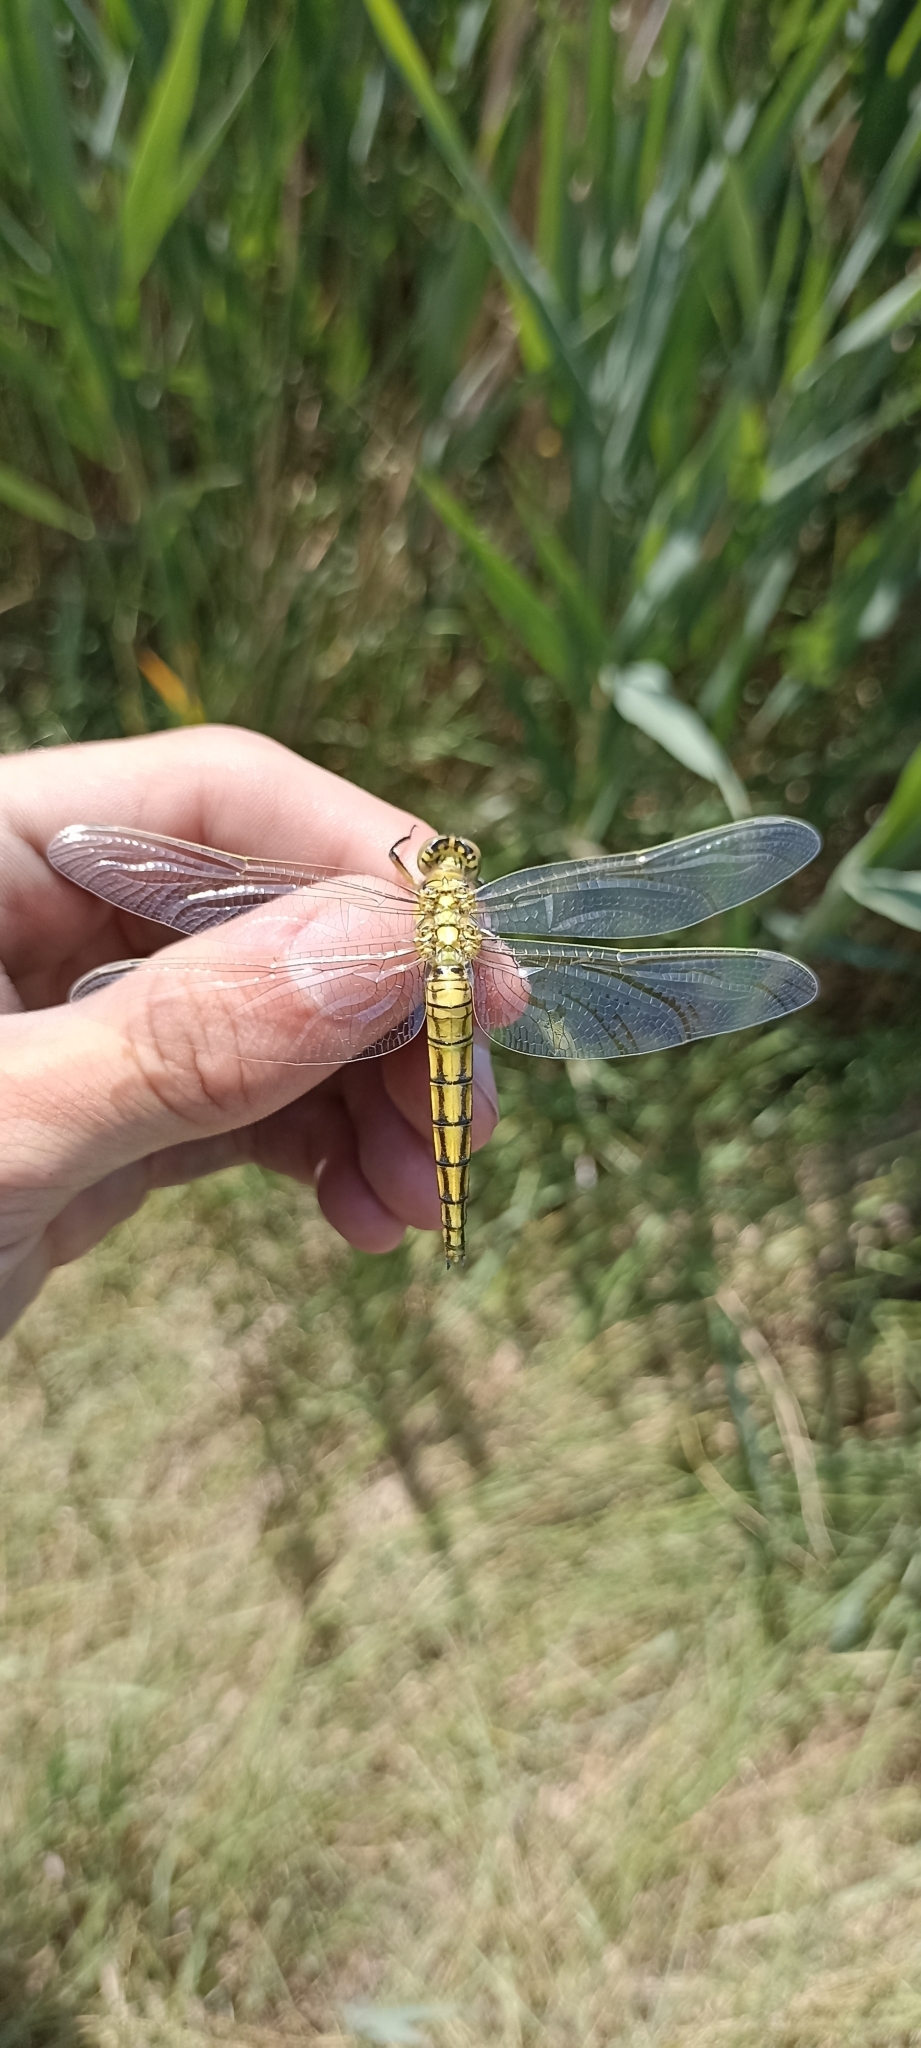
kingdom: Animalia
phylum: Arthropoda
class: Insecta
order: Odonata
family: Libellulidae
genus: Orthetrum
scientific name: Orthetrum cancellatum
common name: Black-tailed skimmer
